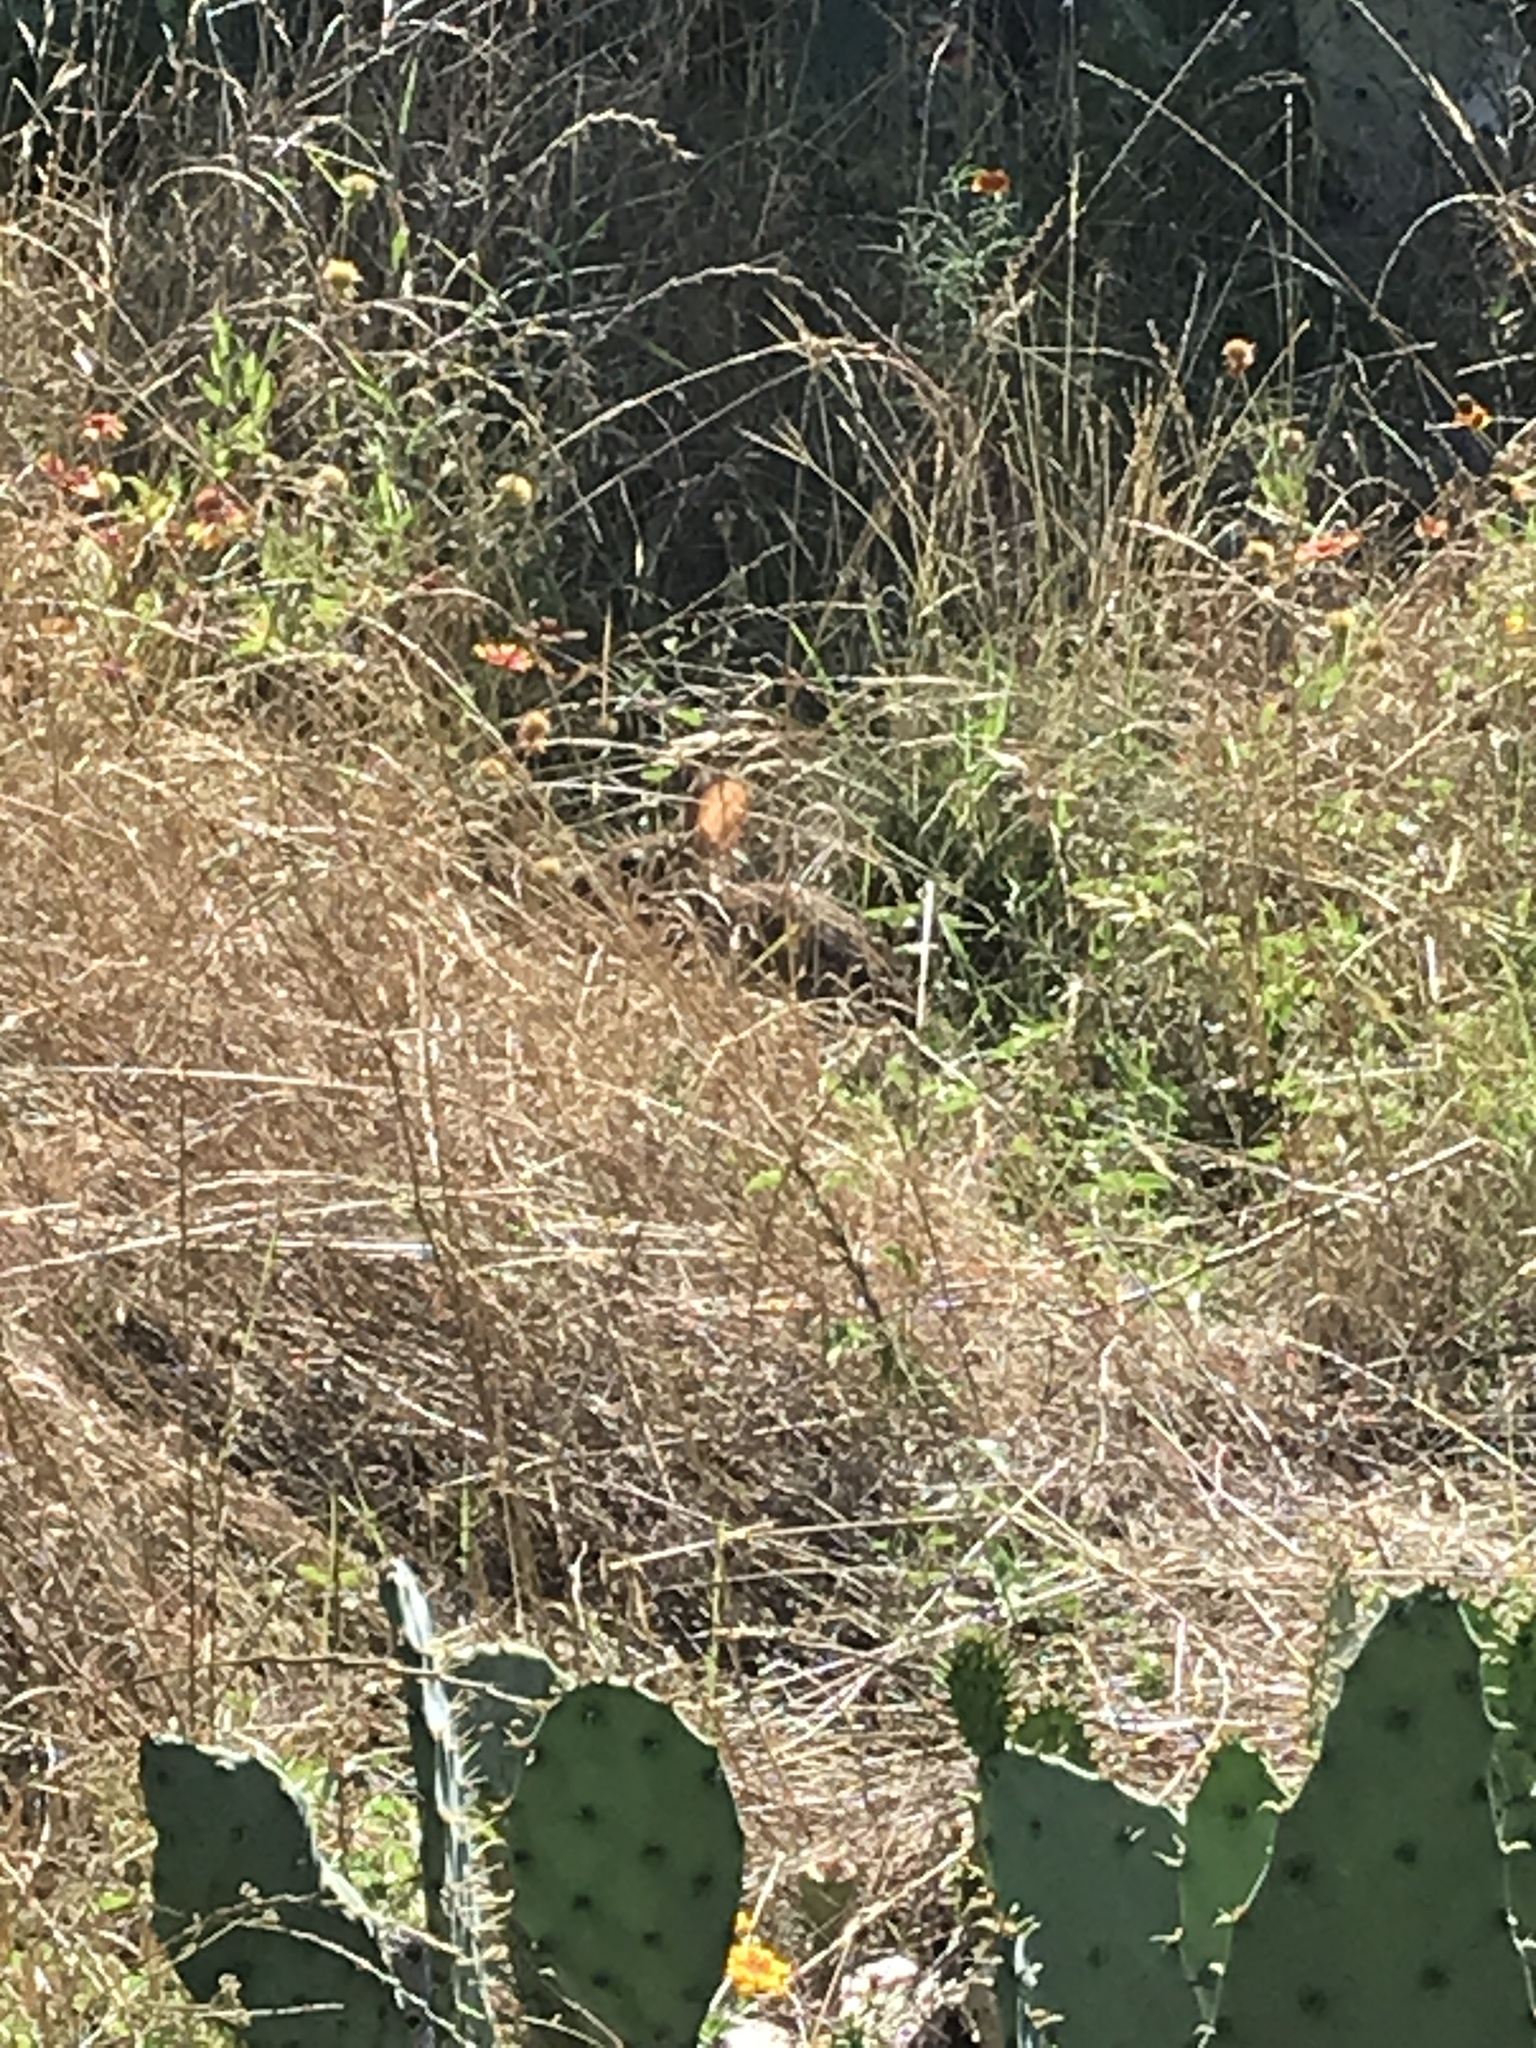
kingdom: Animalia
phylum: Chordata
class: Mammalia
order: Lagomorpha
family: Leporidae
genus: Sylvilagus
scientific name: Sylvilagus floridanus
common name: Eastern cottontail
